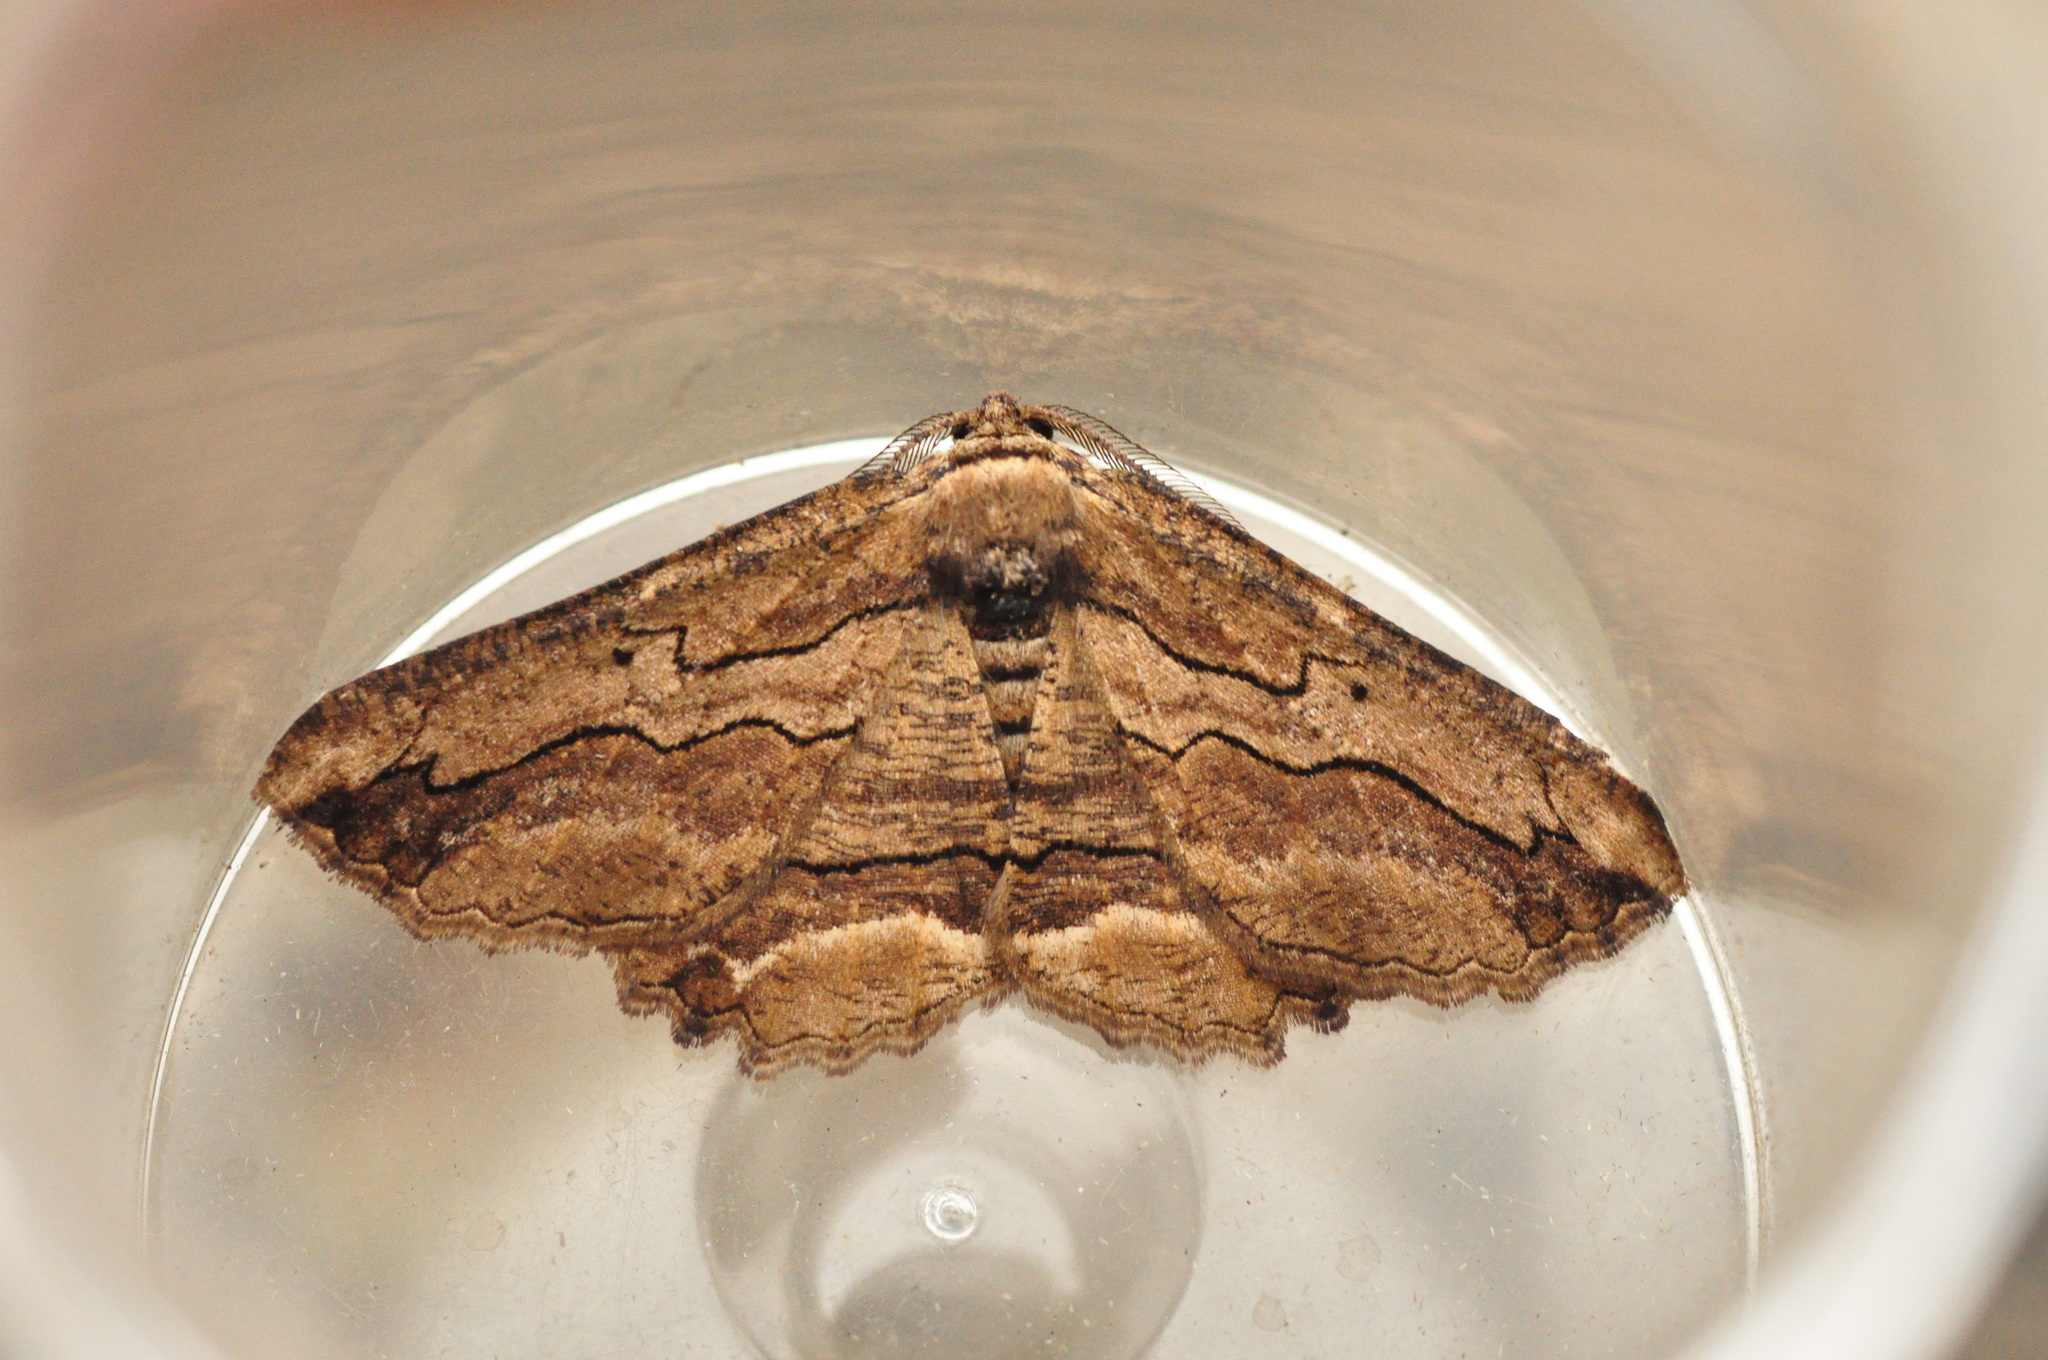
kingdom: Animalia
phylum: Arthropoda
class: Insecta
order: Lepidoptera
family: Geometridae
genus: Menophra
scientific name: Menophra abruptaria
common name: Waved umber
